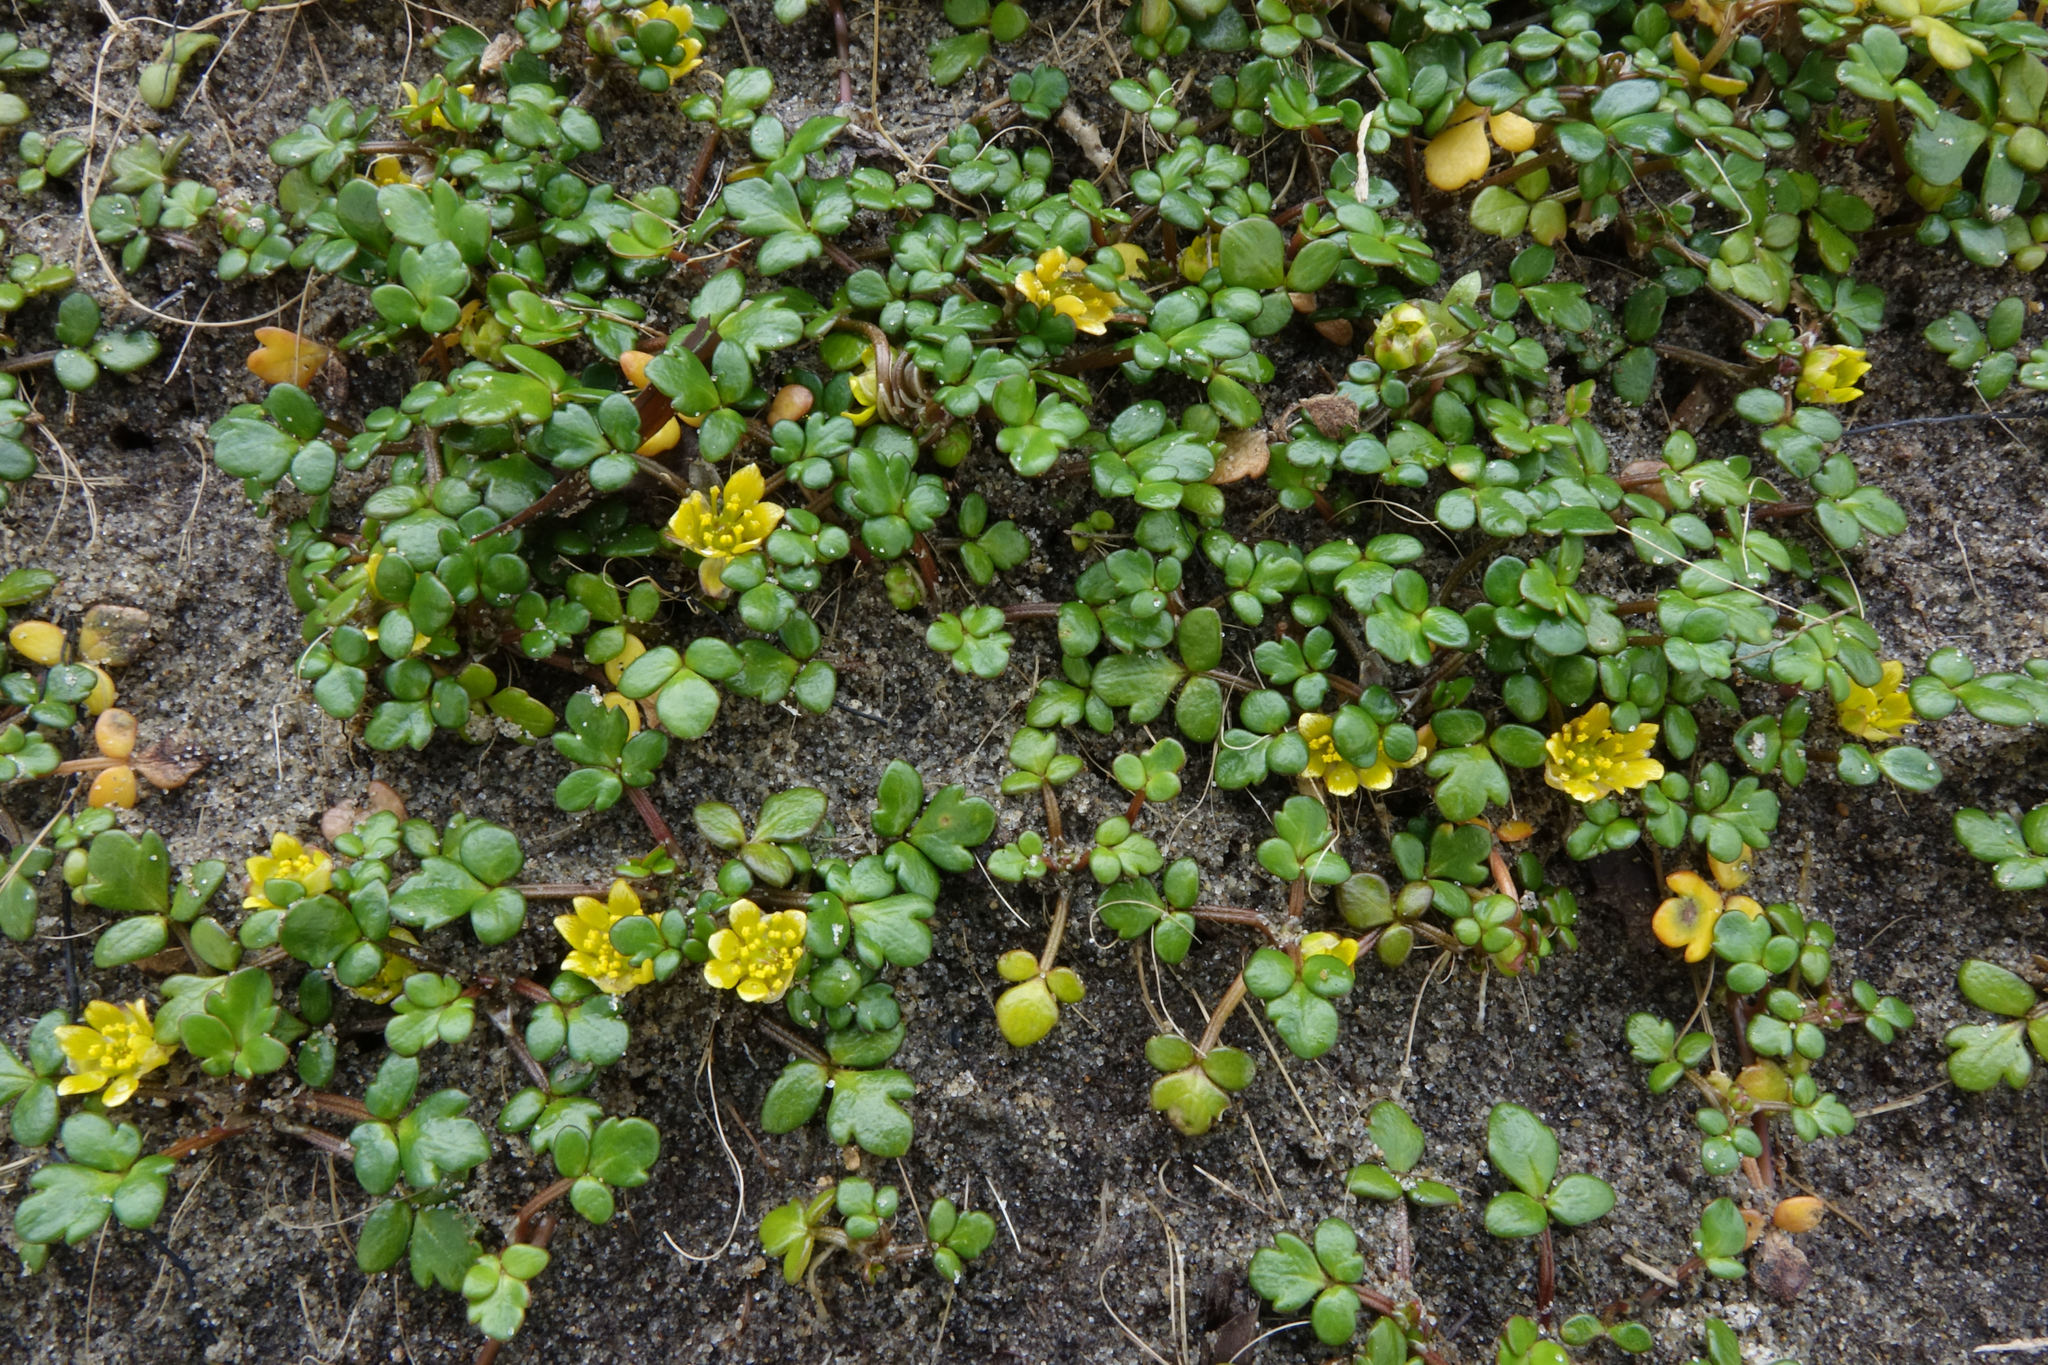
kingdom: Plantae
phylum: Tracheophyta
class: Magnoliopsida
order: Ranunculales
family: Ranunculaceae
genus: Ranunculus
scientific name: Ranunculus acaulis
